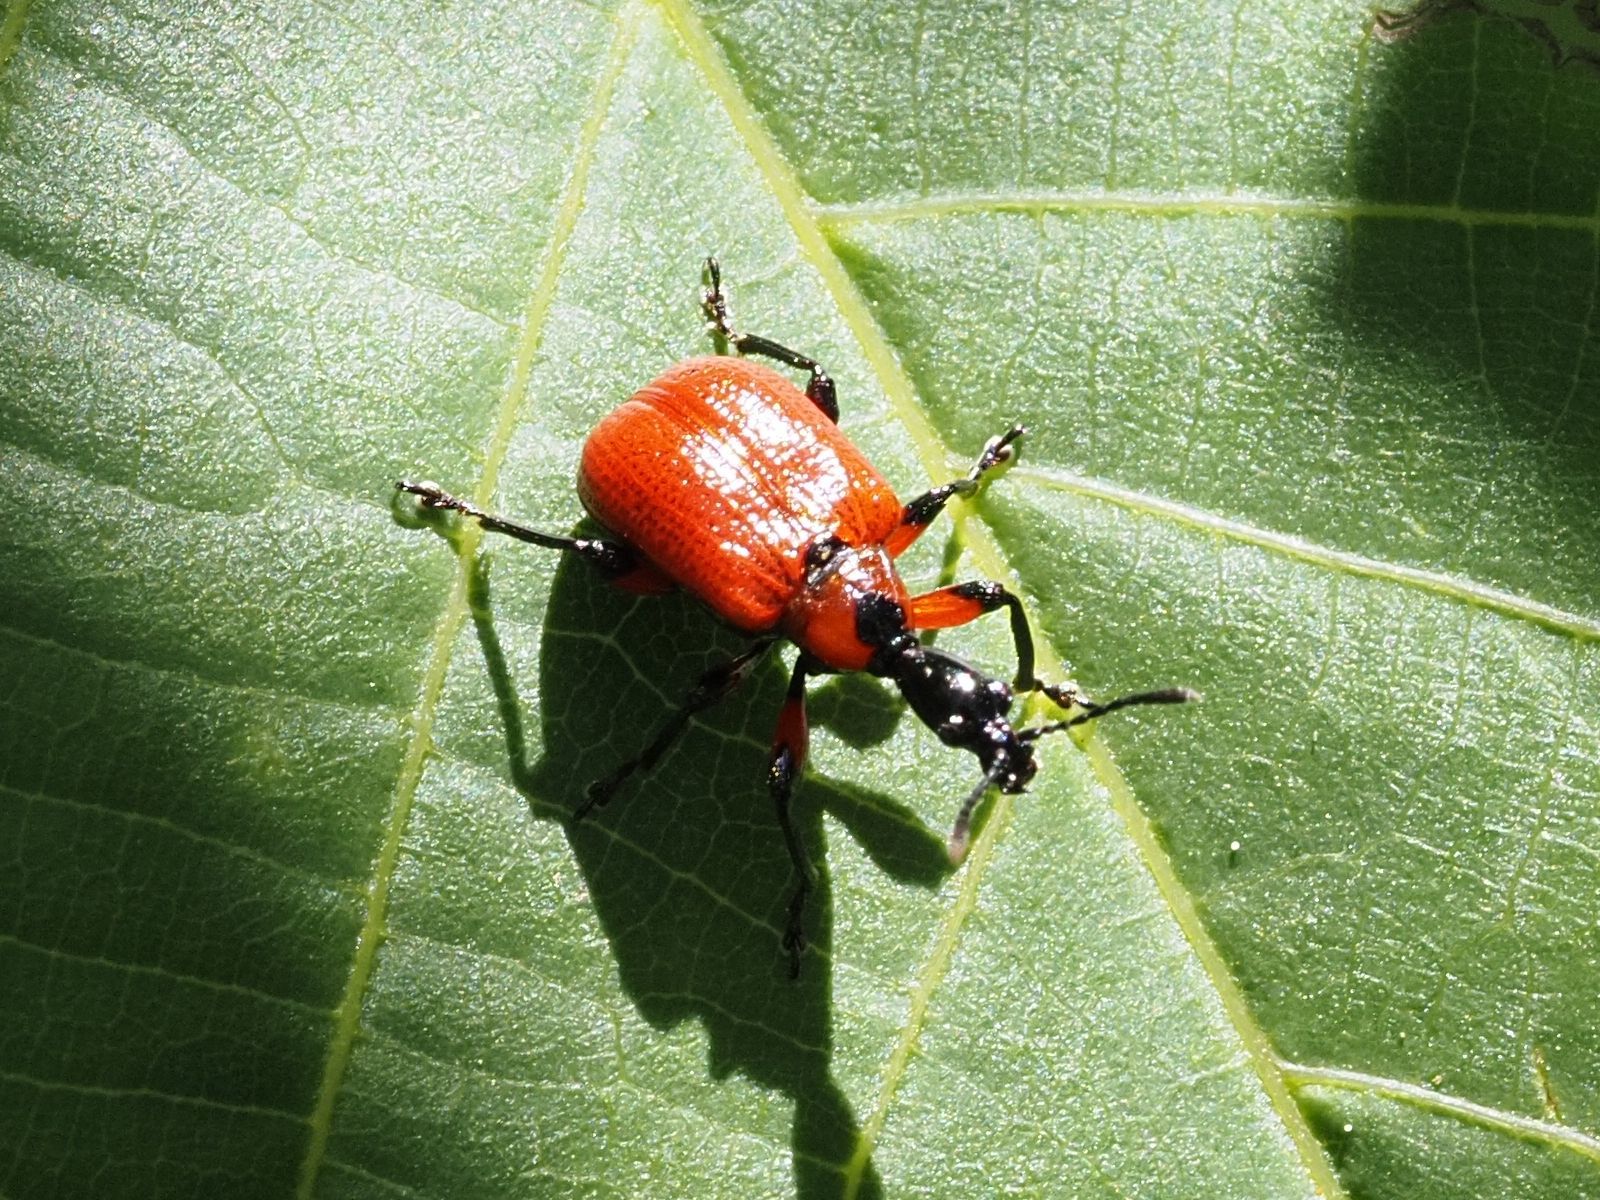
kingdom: Animalia
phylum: Arthropoda
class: Insecta
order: Coleoptera
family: Attelabidae
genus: Apoderus
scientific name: Apoderus coryli
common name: Hazel leaf roller
